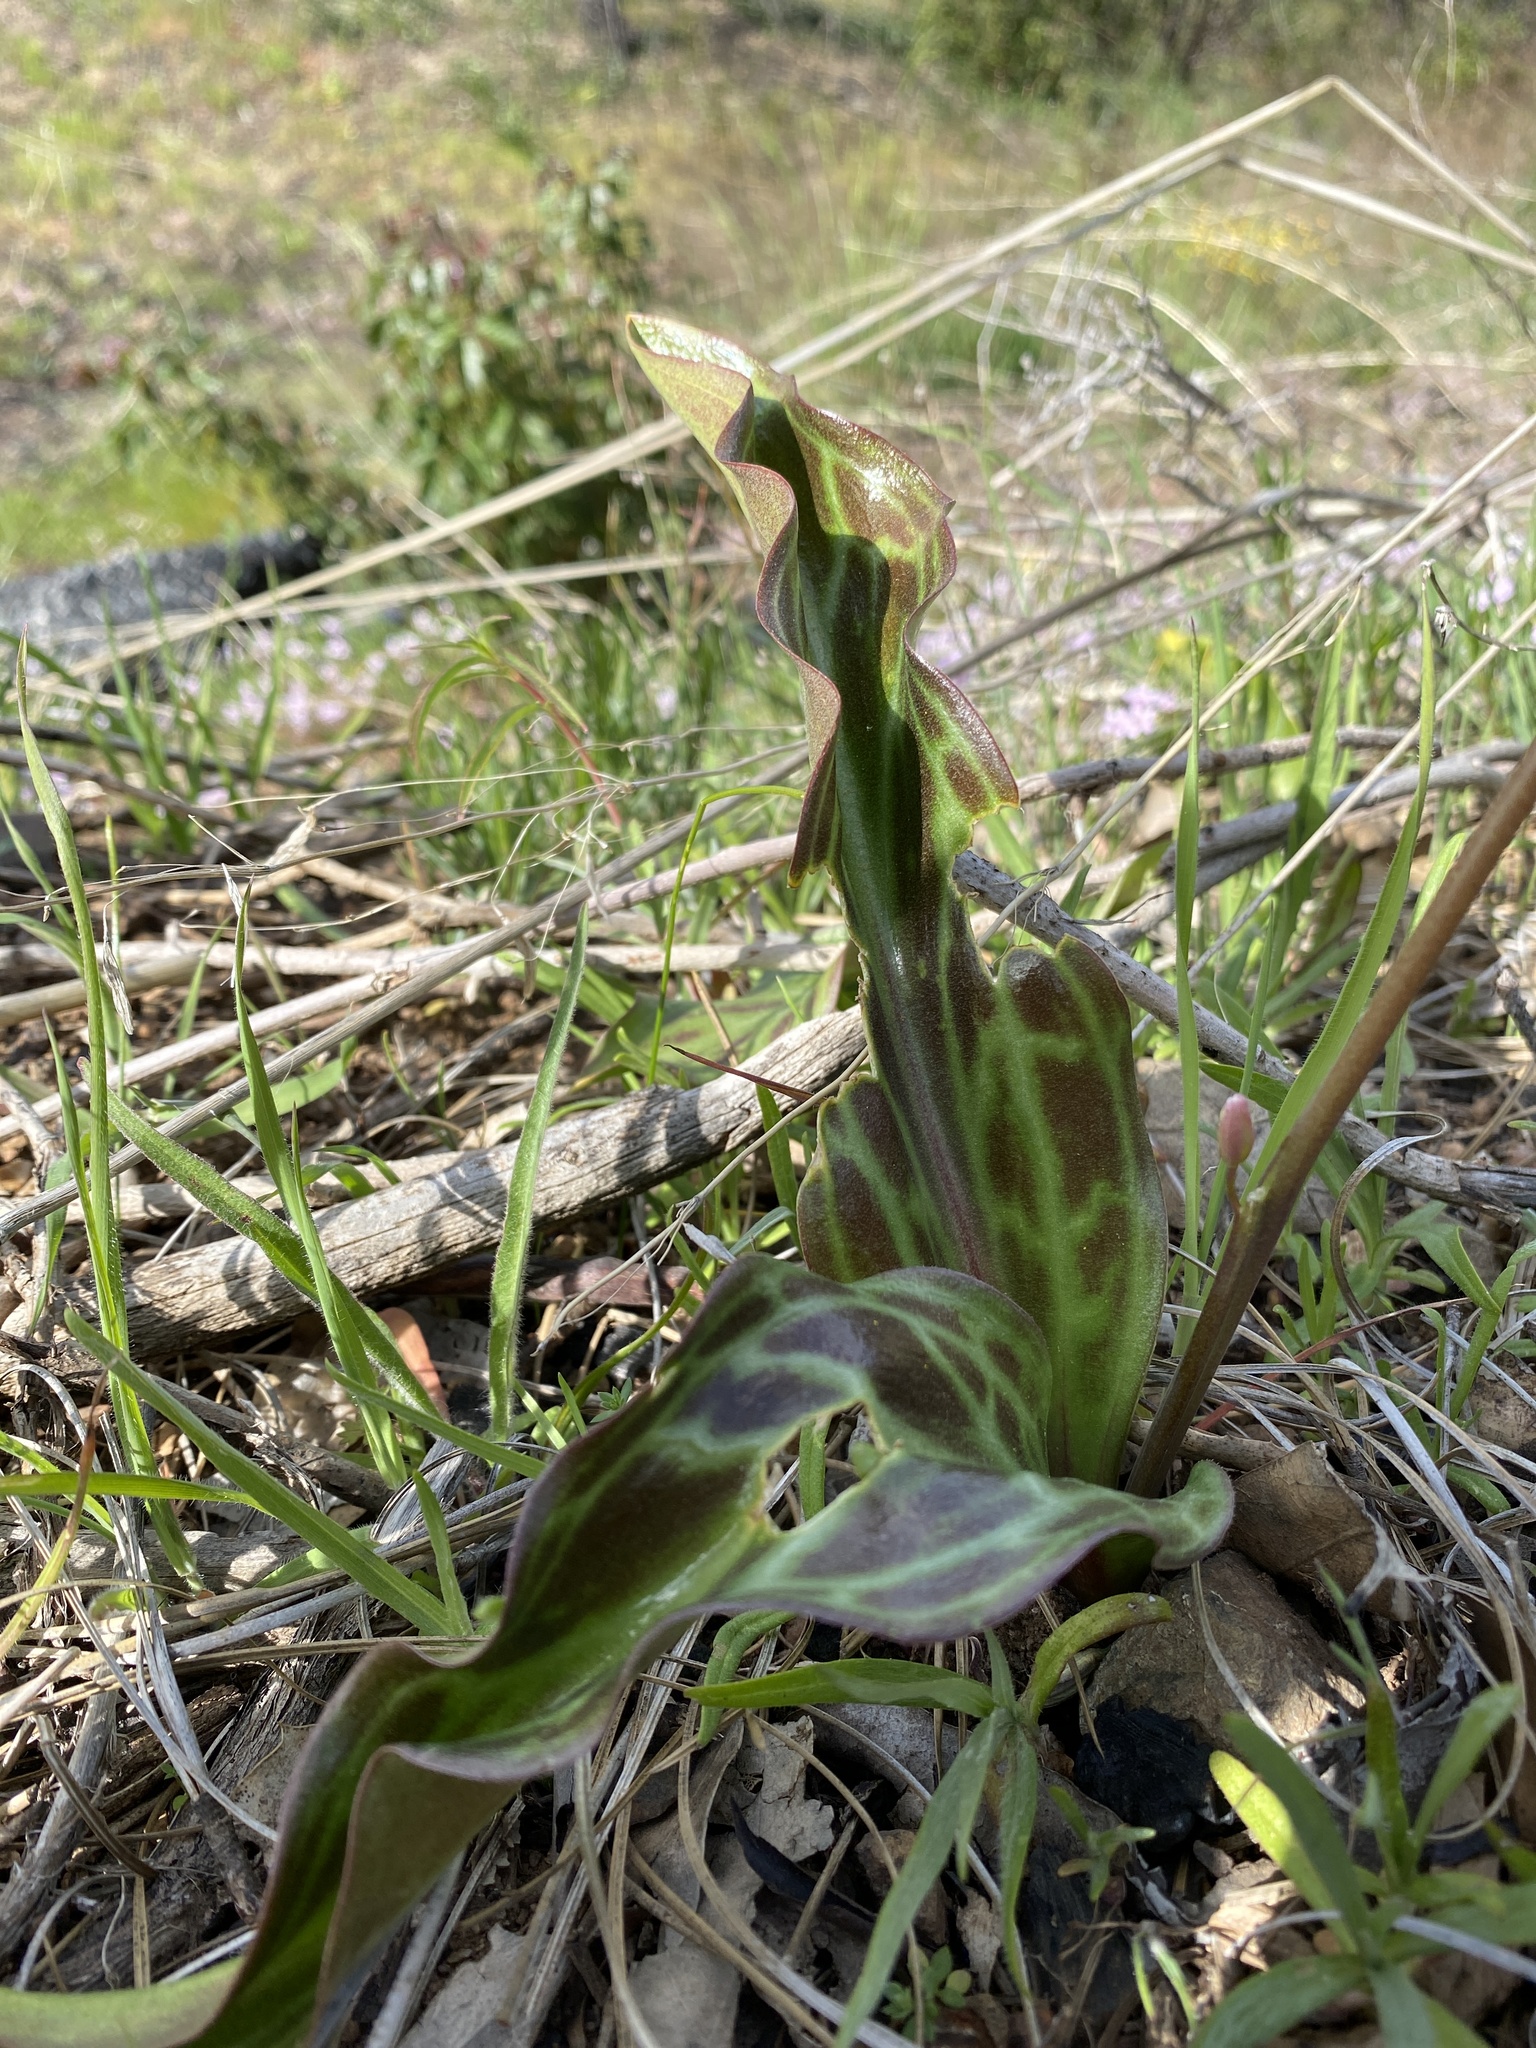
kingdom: Plantae
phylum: Tracheophyta
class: Liliopsida
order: Liliales
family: Liliaceae
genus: Erythronium
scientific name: Erythronium helenae
